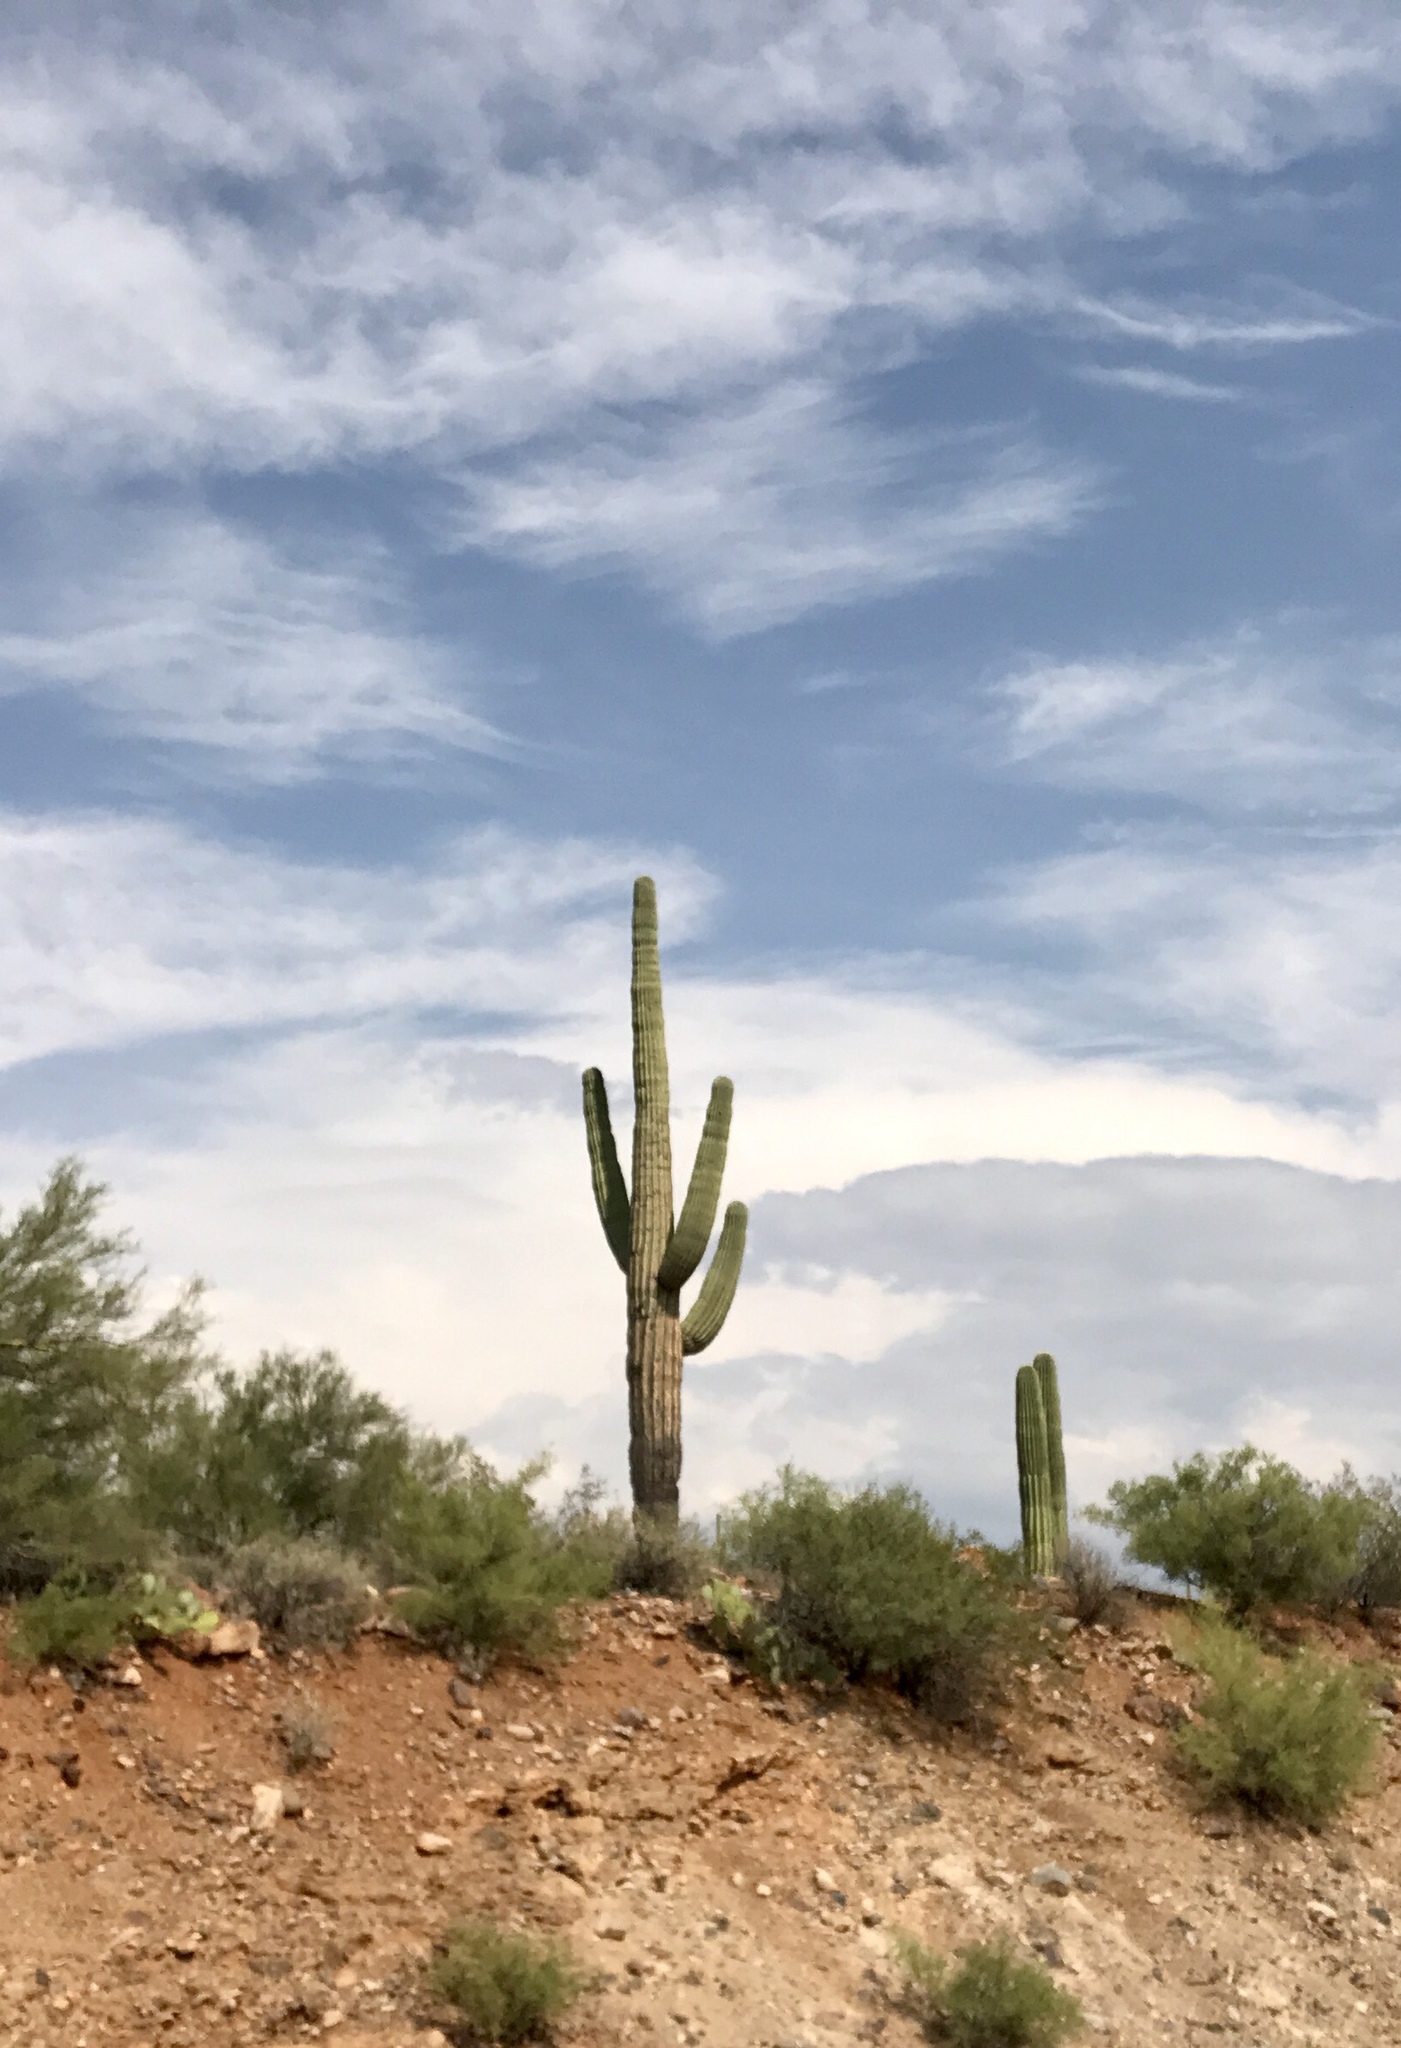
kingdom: Plantae
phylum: Tracheophyta
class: Magnoliopsida
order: Caryophyllales
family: Cactaceae
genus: Carnegiea
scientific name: Carnegiea gigantea
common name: Saguaro
